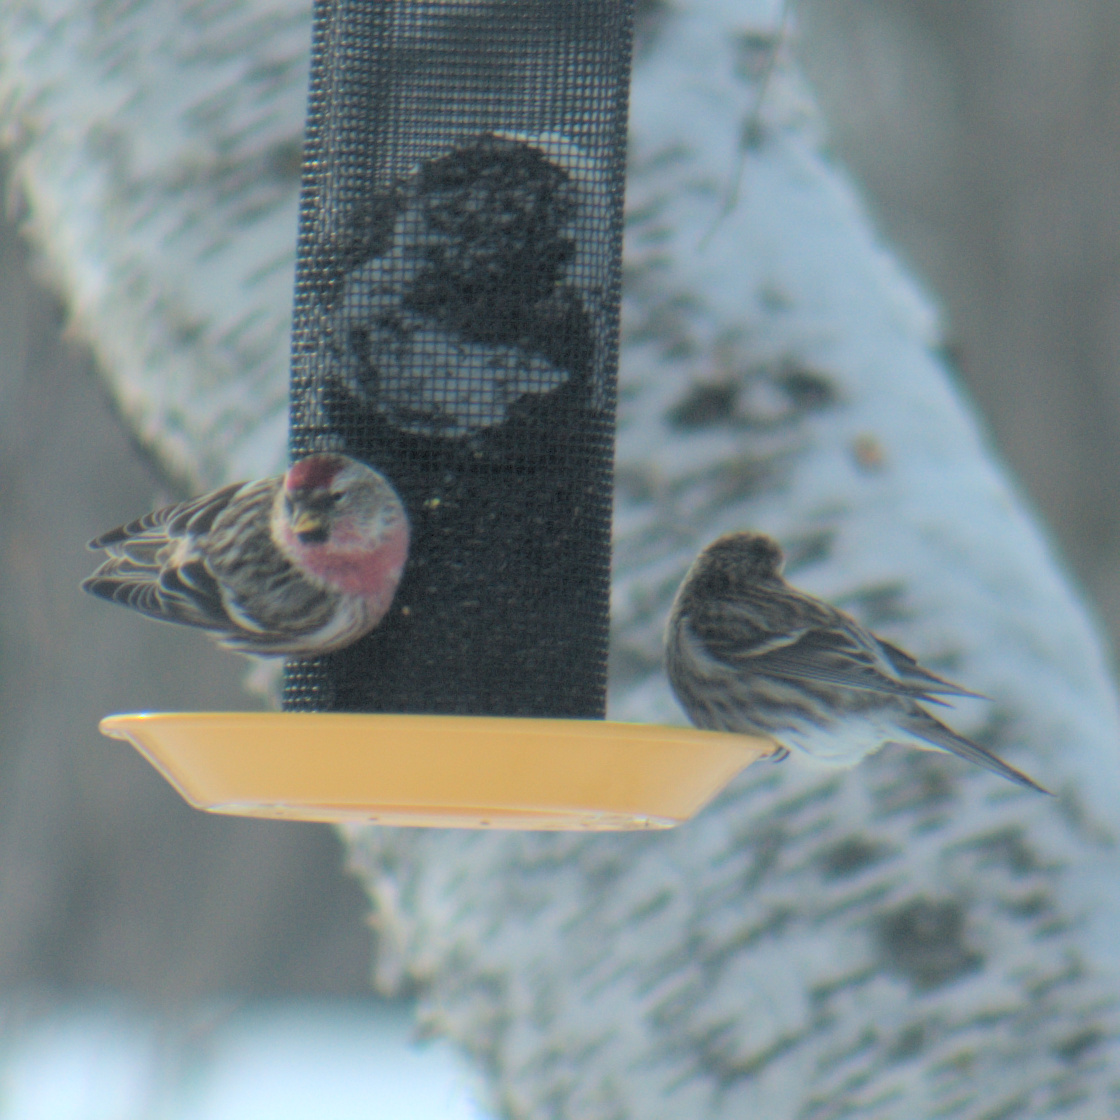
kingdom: Animalia
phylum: Chordata
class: Aves
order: Passeriformes
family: Fringillidae
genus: Acanthis
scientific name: Acanthis flammea
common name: Common redpoll
